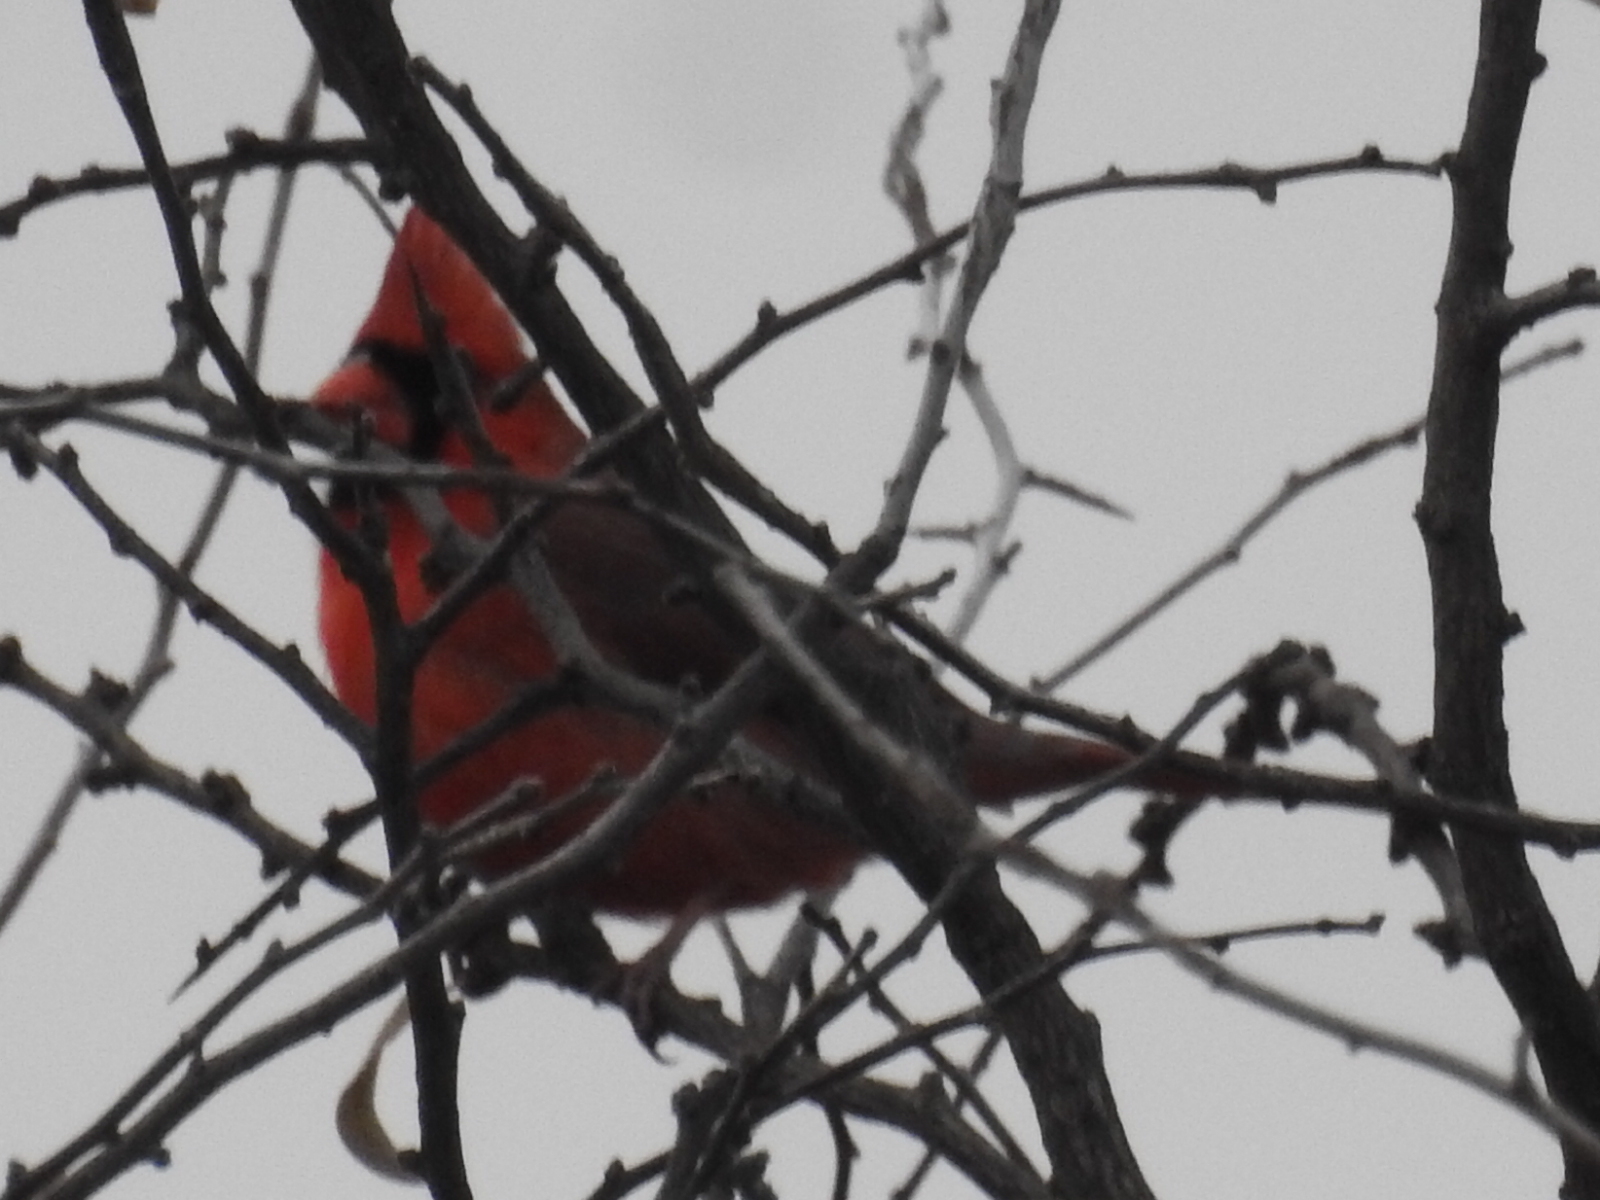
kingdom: Animalia
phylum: Chordata
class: Aves
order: Passeriformes
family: Cardinalidae
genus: Cardinalis
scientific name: Cardinalis cardinalis
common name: Northern cardinal
